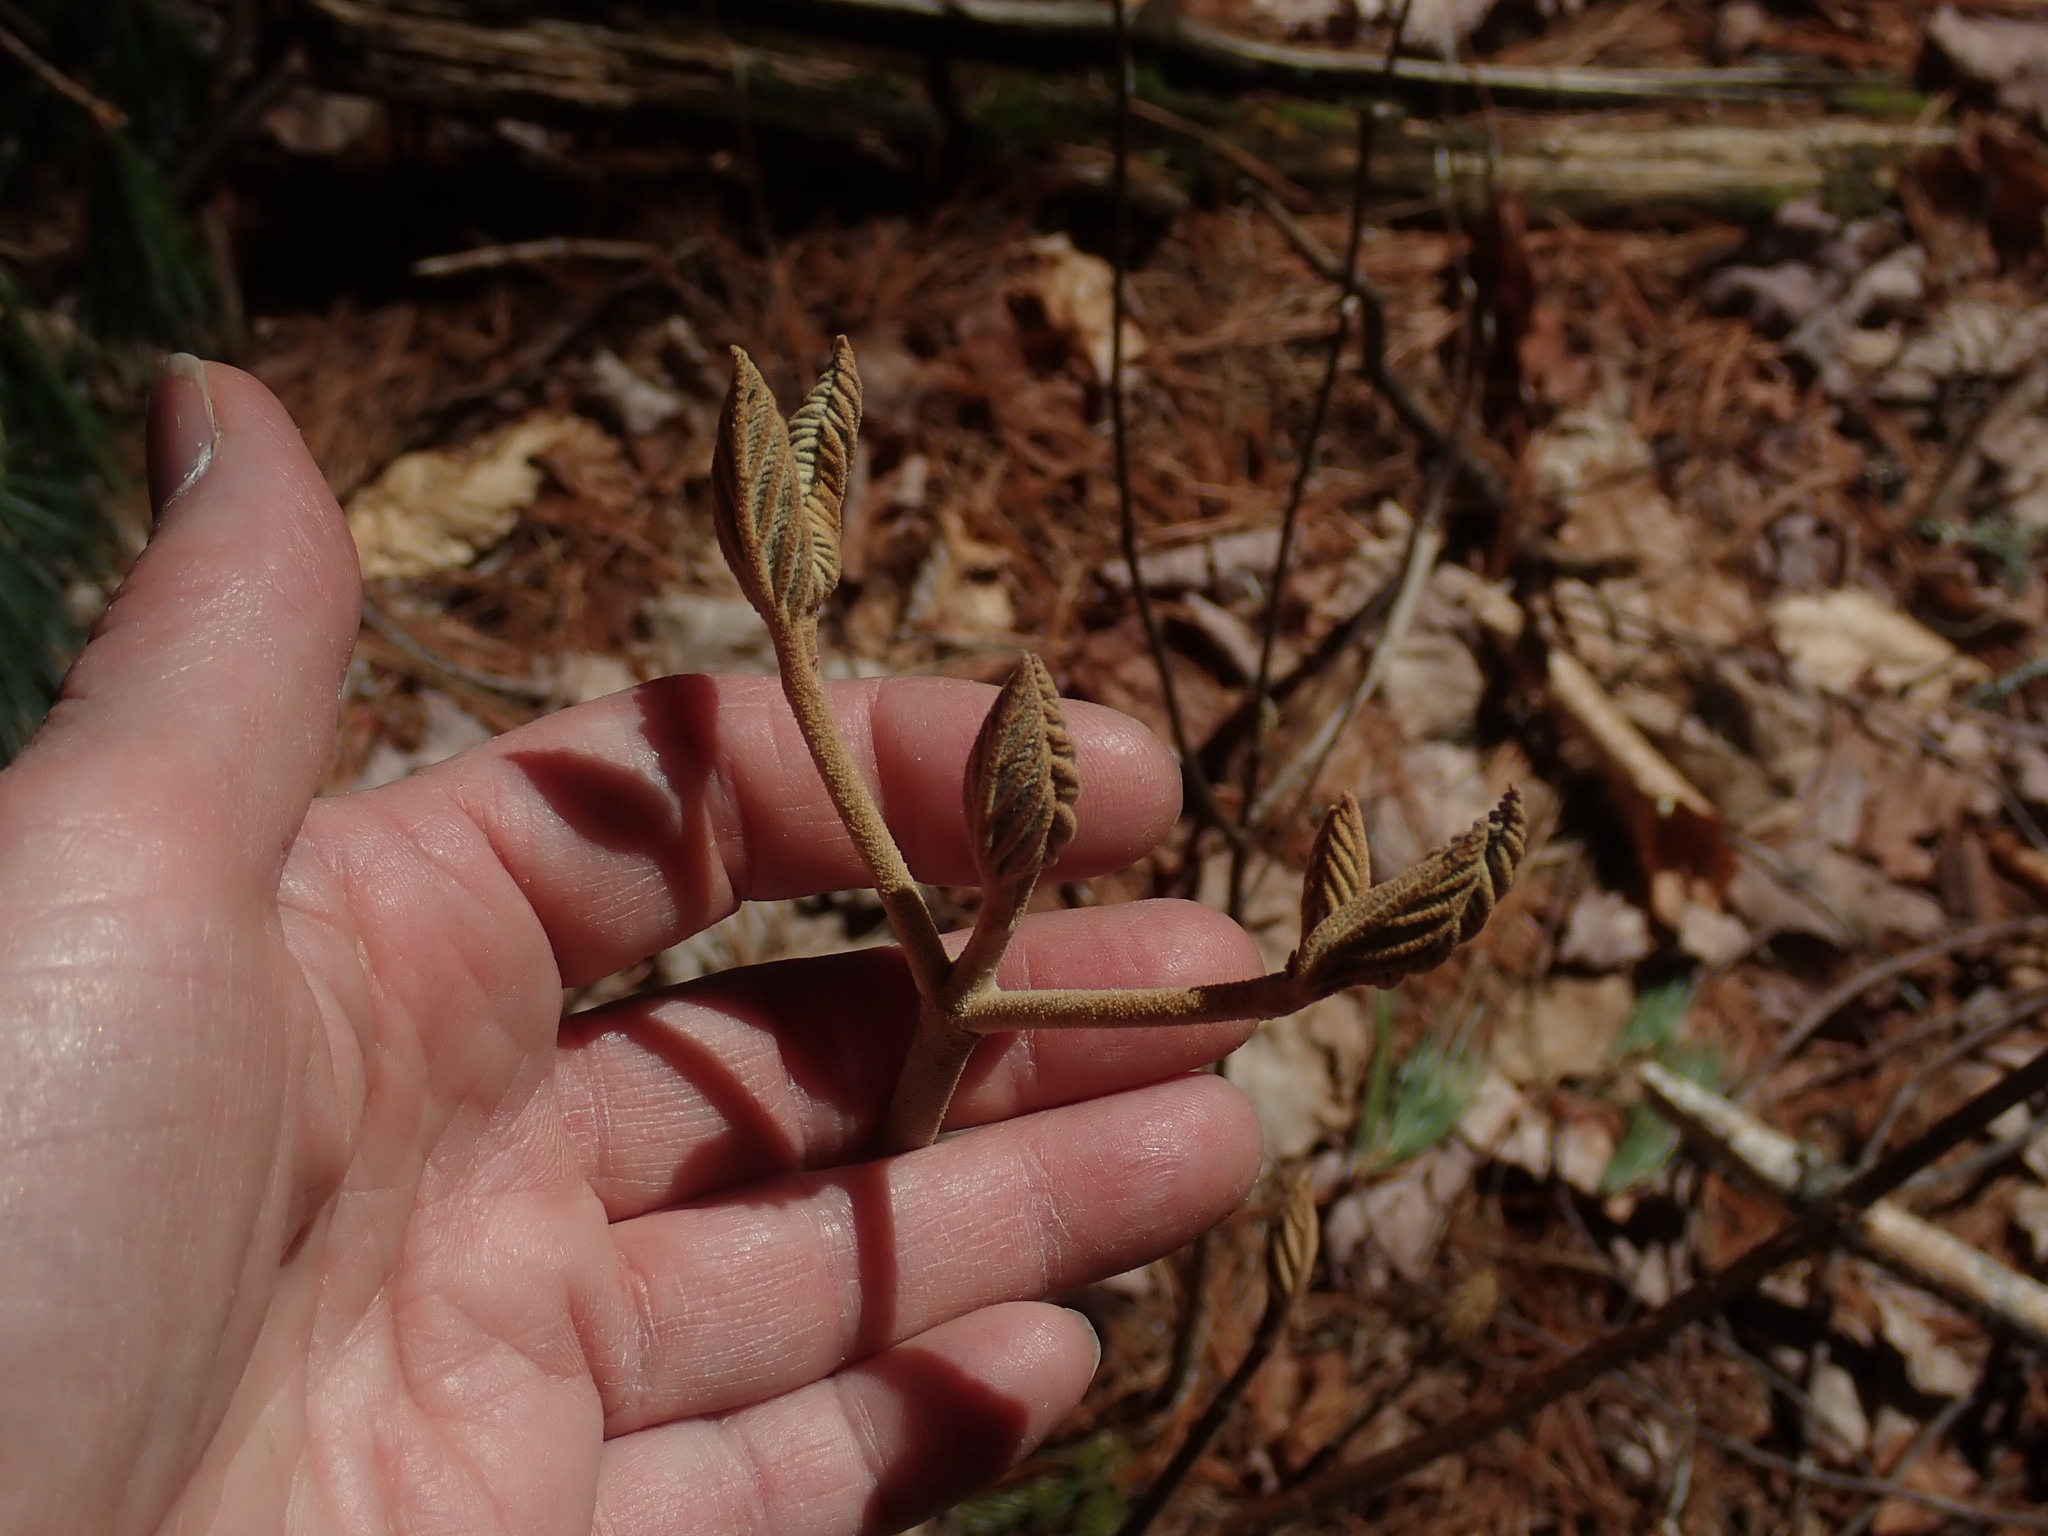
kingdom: Plantae
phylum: Tracheophyta
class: Magnoliopsida
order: Dipsacales
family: Viburnaceae
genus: Viburnum
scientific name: Viburnum lantanoides
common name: Hobblebush
